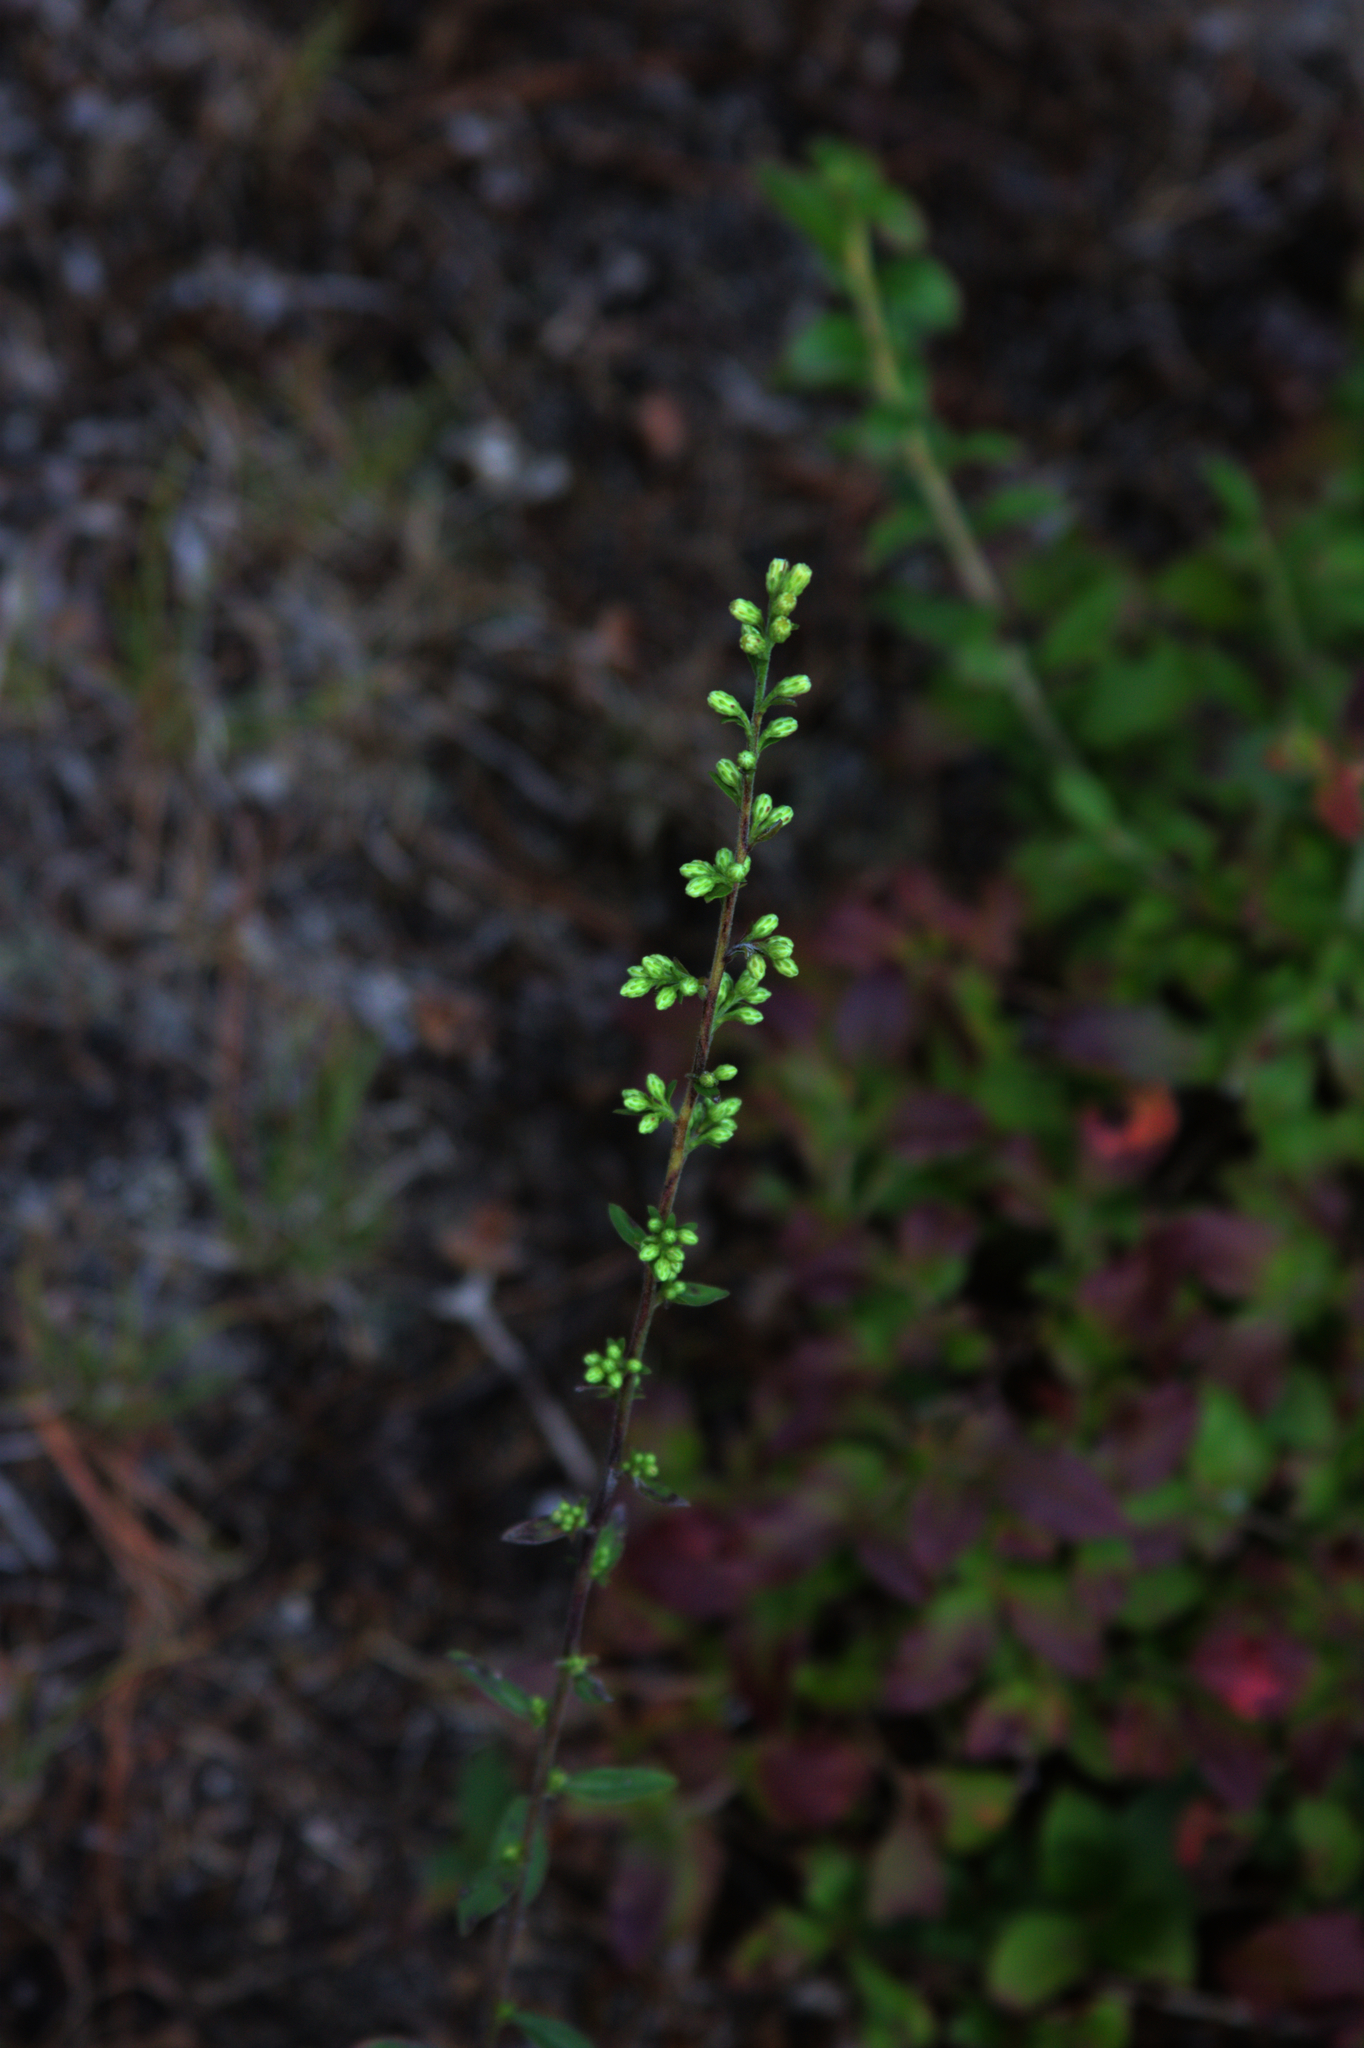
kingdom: Plantae
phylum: Tracheophyta
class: Magnoliopsida
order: Asterales
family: Asteraceae
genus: Solidago
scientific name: Solidago bicolor
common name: Silverrod
